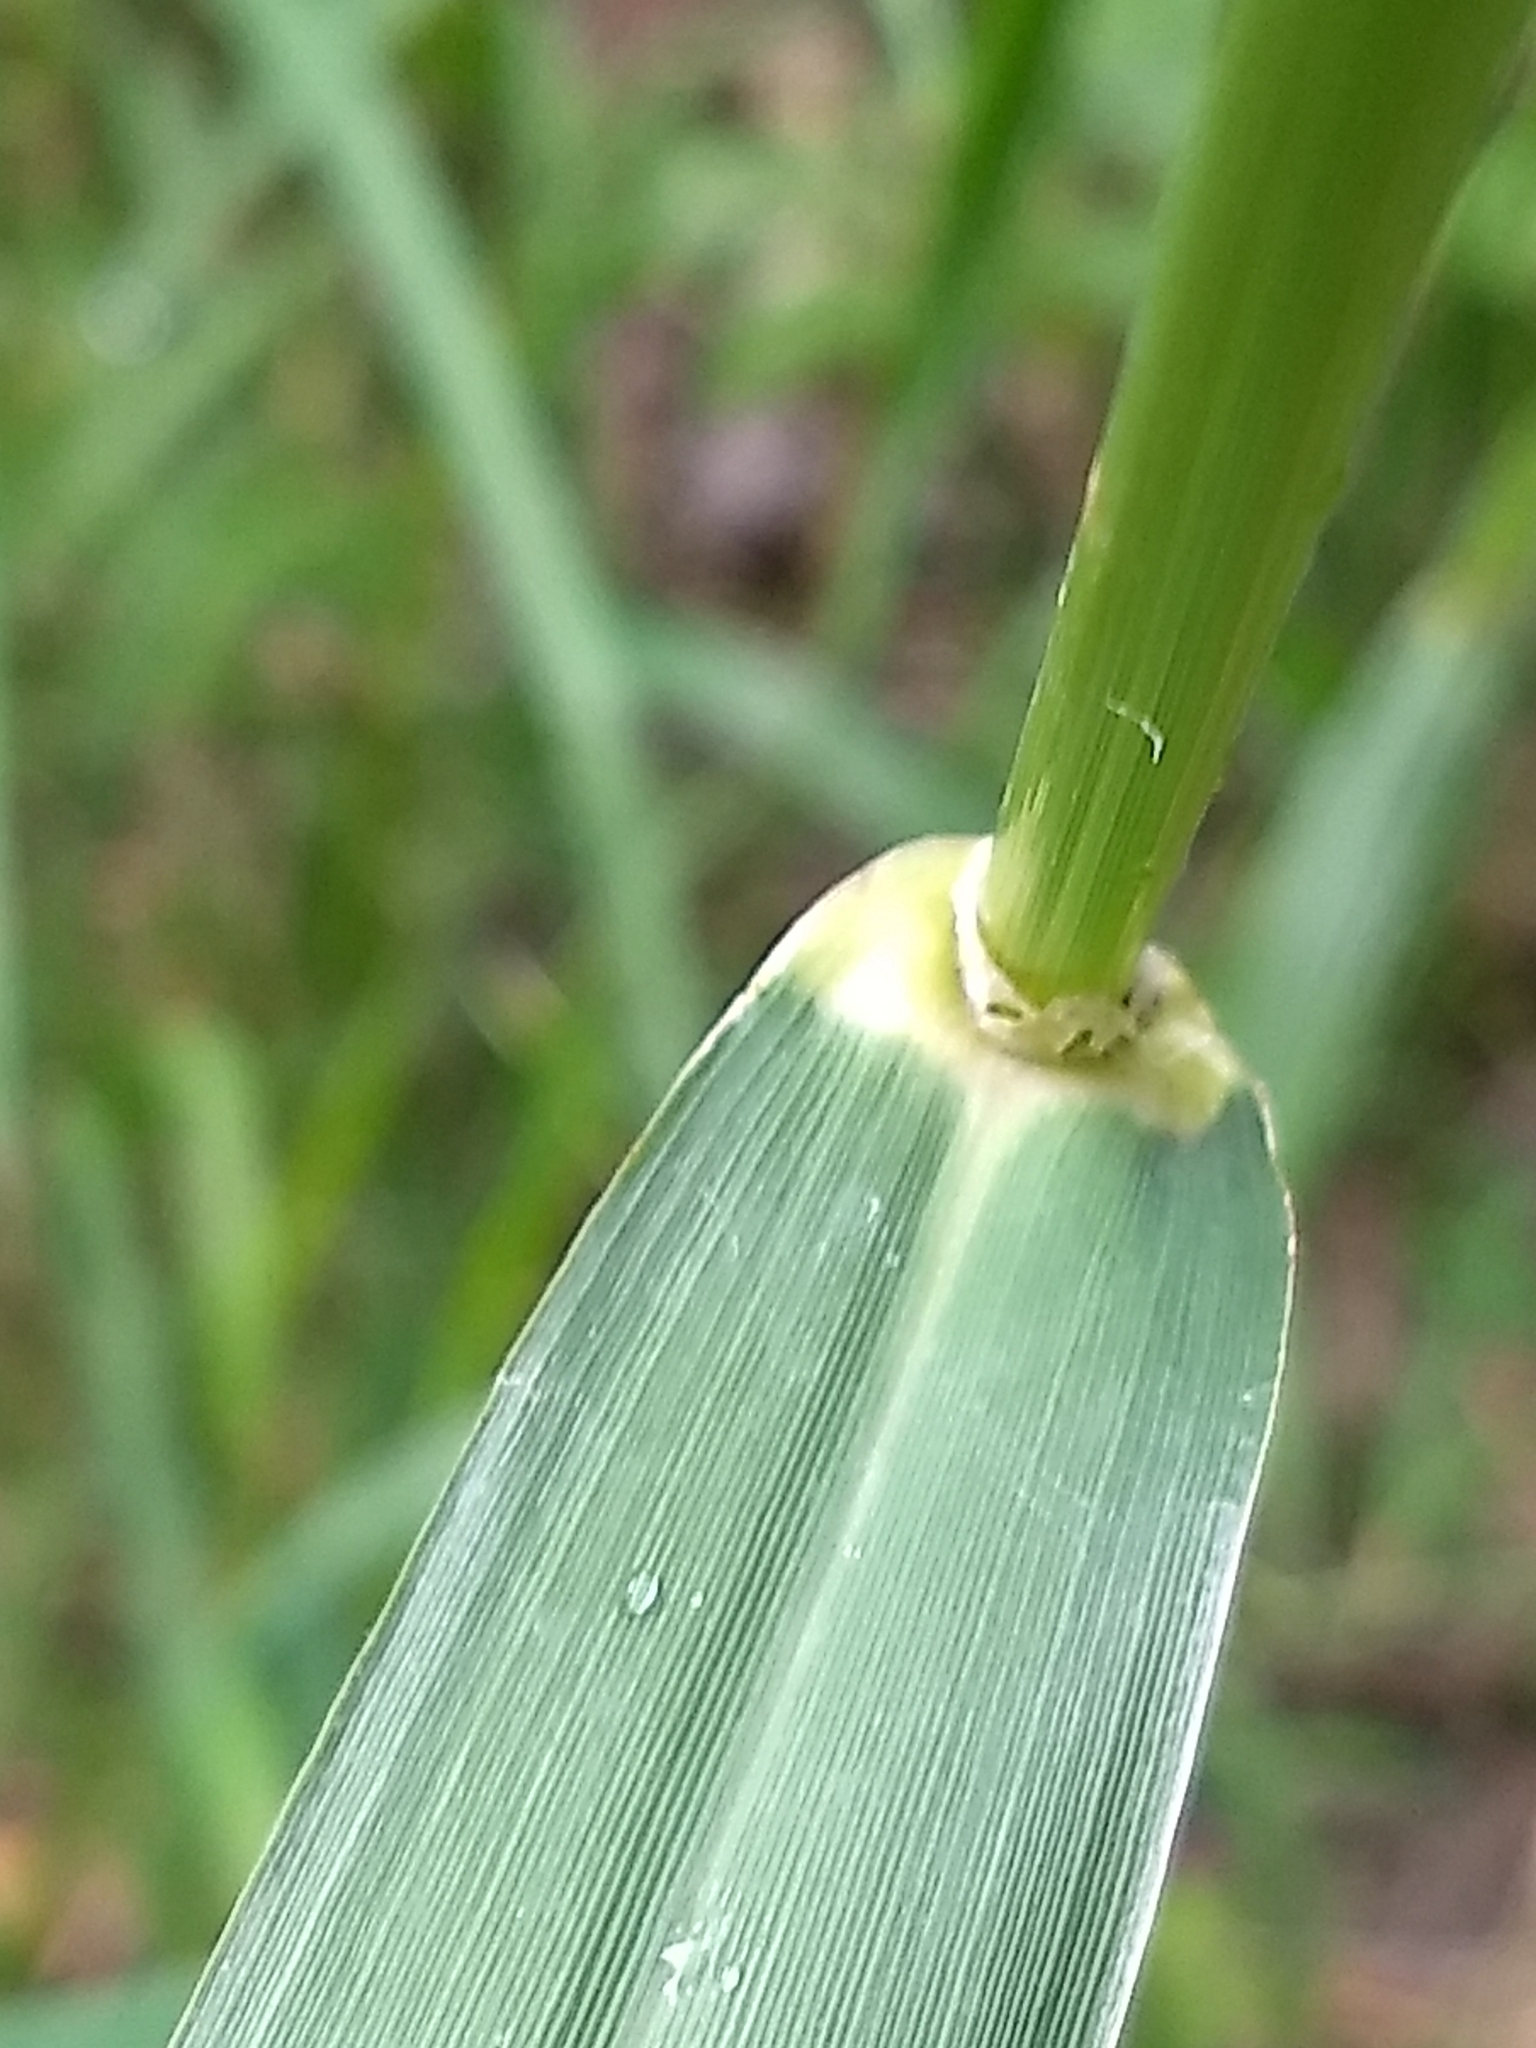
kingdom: Plantae
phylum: Tracheophyta
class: Liliopsida
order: Poales
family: Poaceae
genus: Phalaris
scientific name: Phalaris arundinacea
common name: Reed canary-grass
